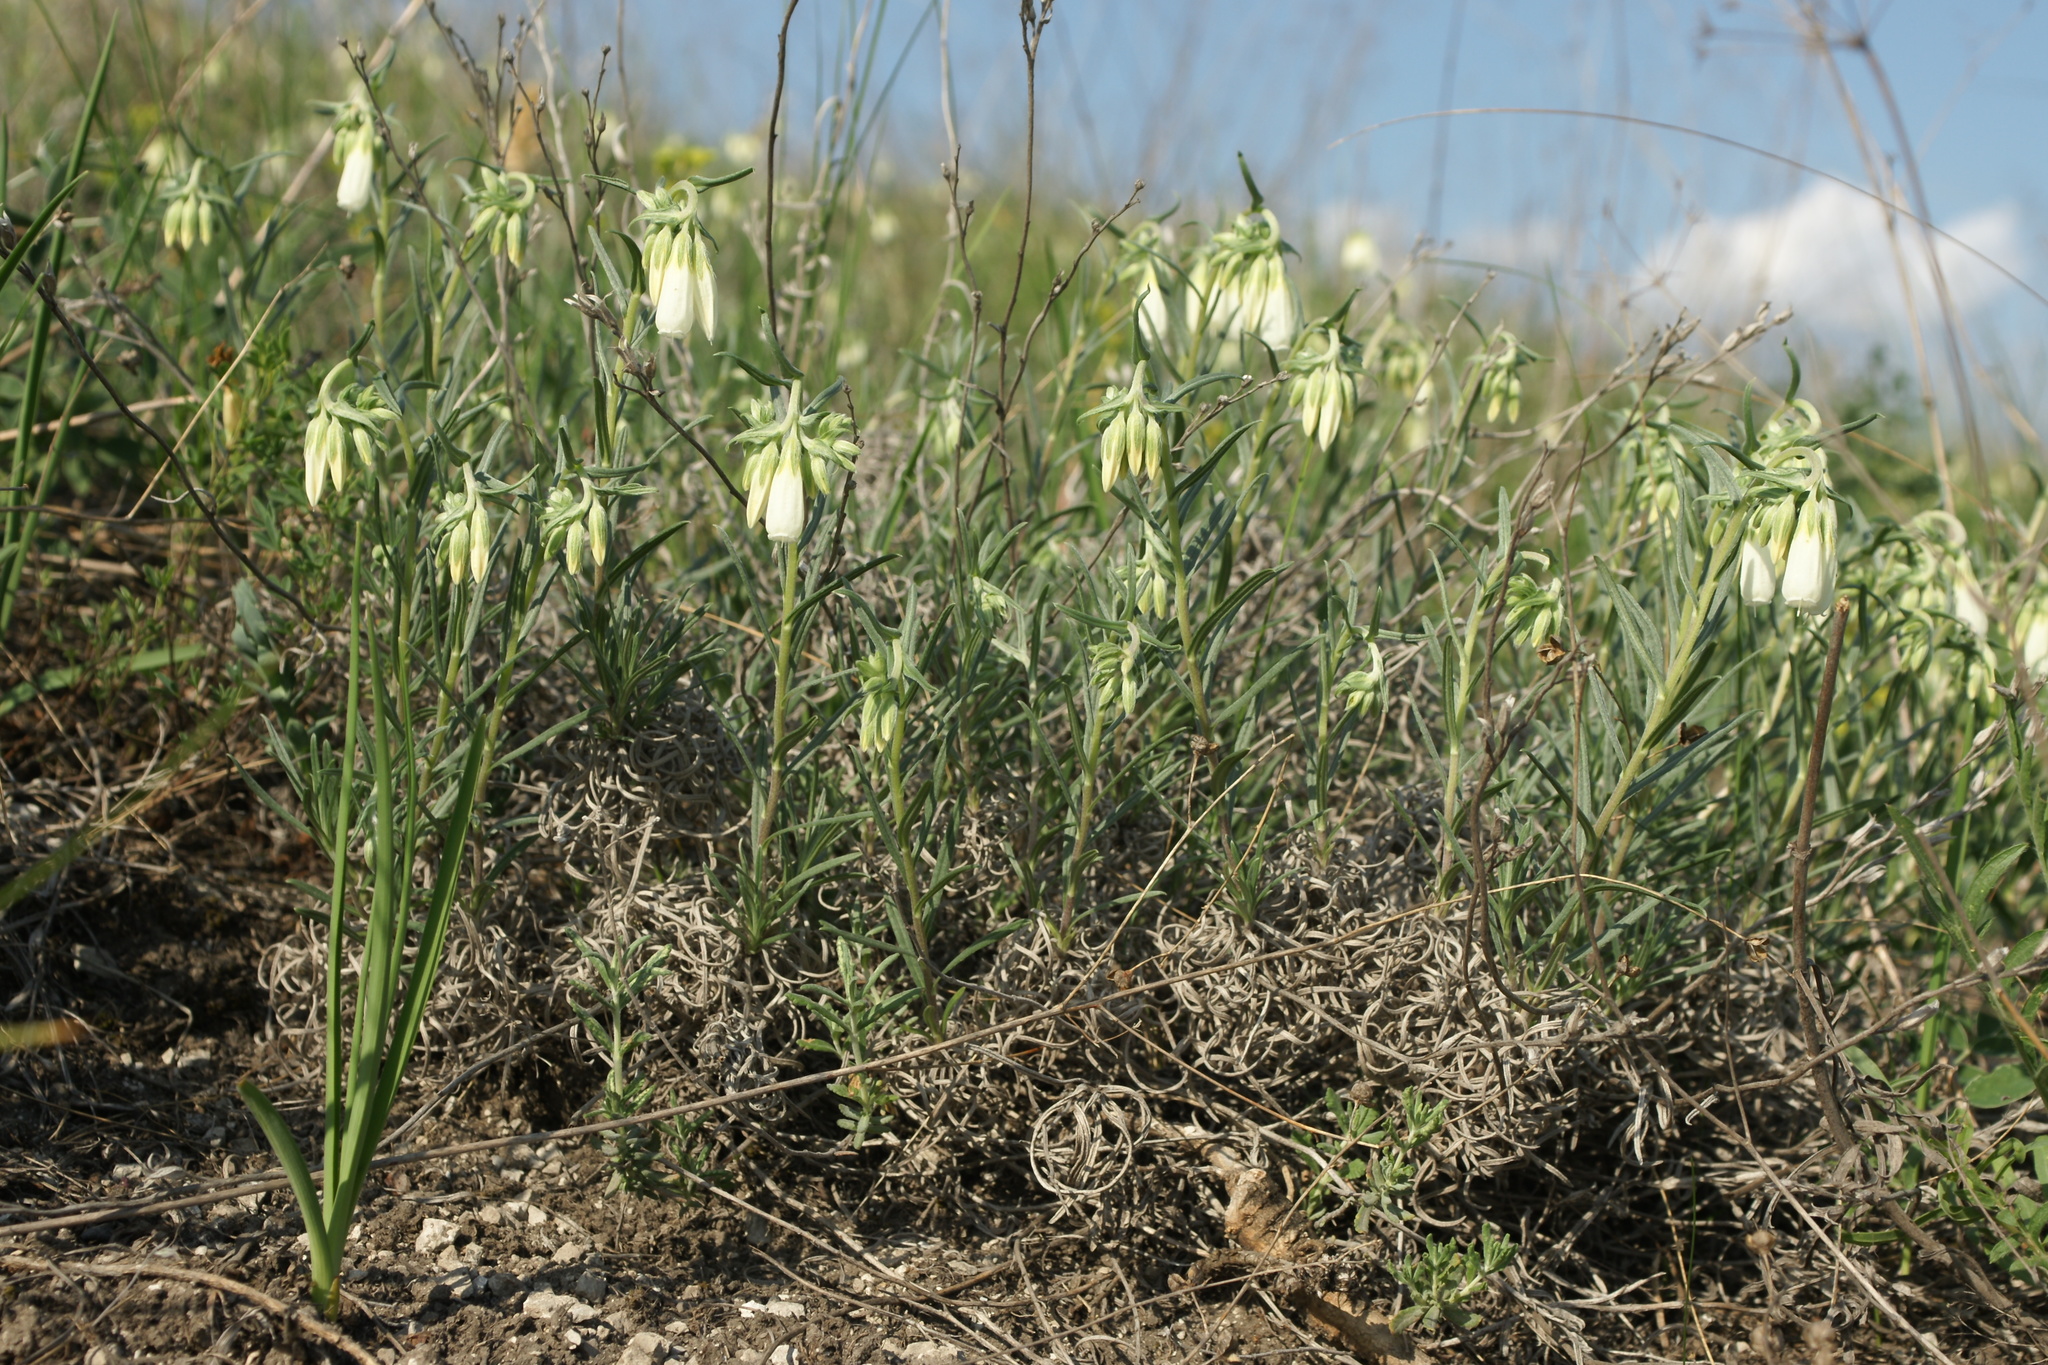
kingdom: Plantae
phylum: Tracheophyta
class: Magnoliopsida
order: Boraginales
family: Boraginaceae
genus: Onosma
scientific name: Onosma simplicissima
